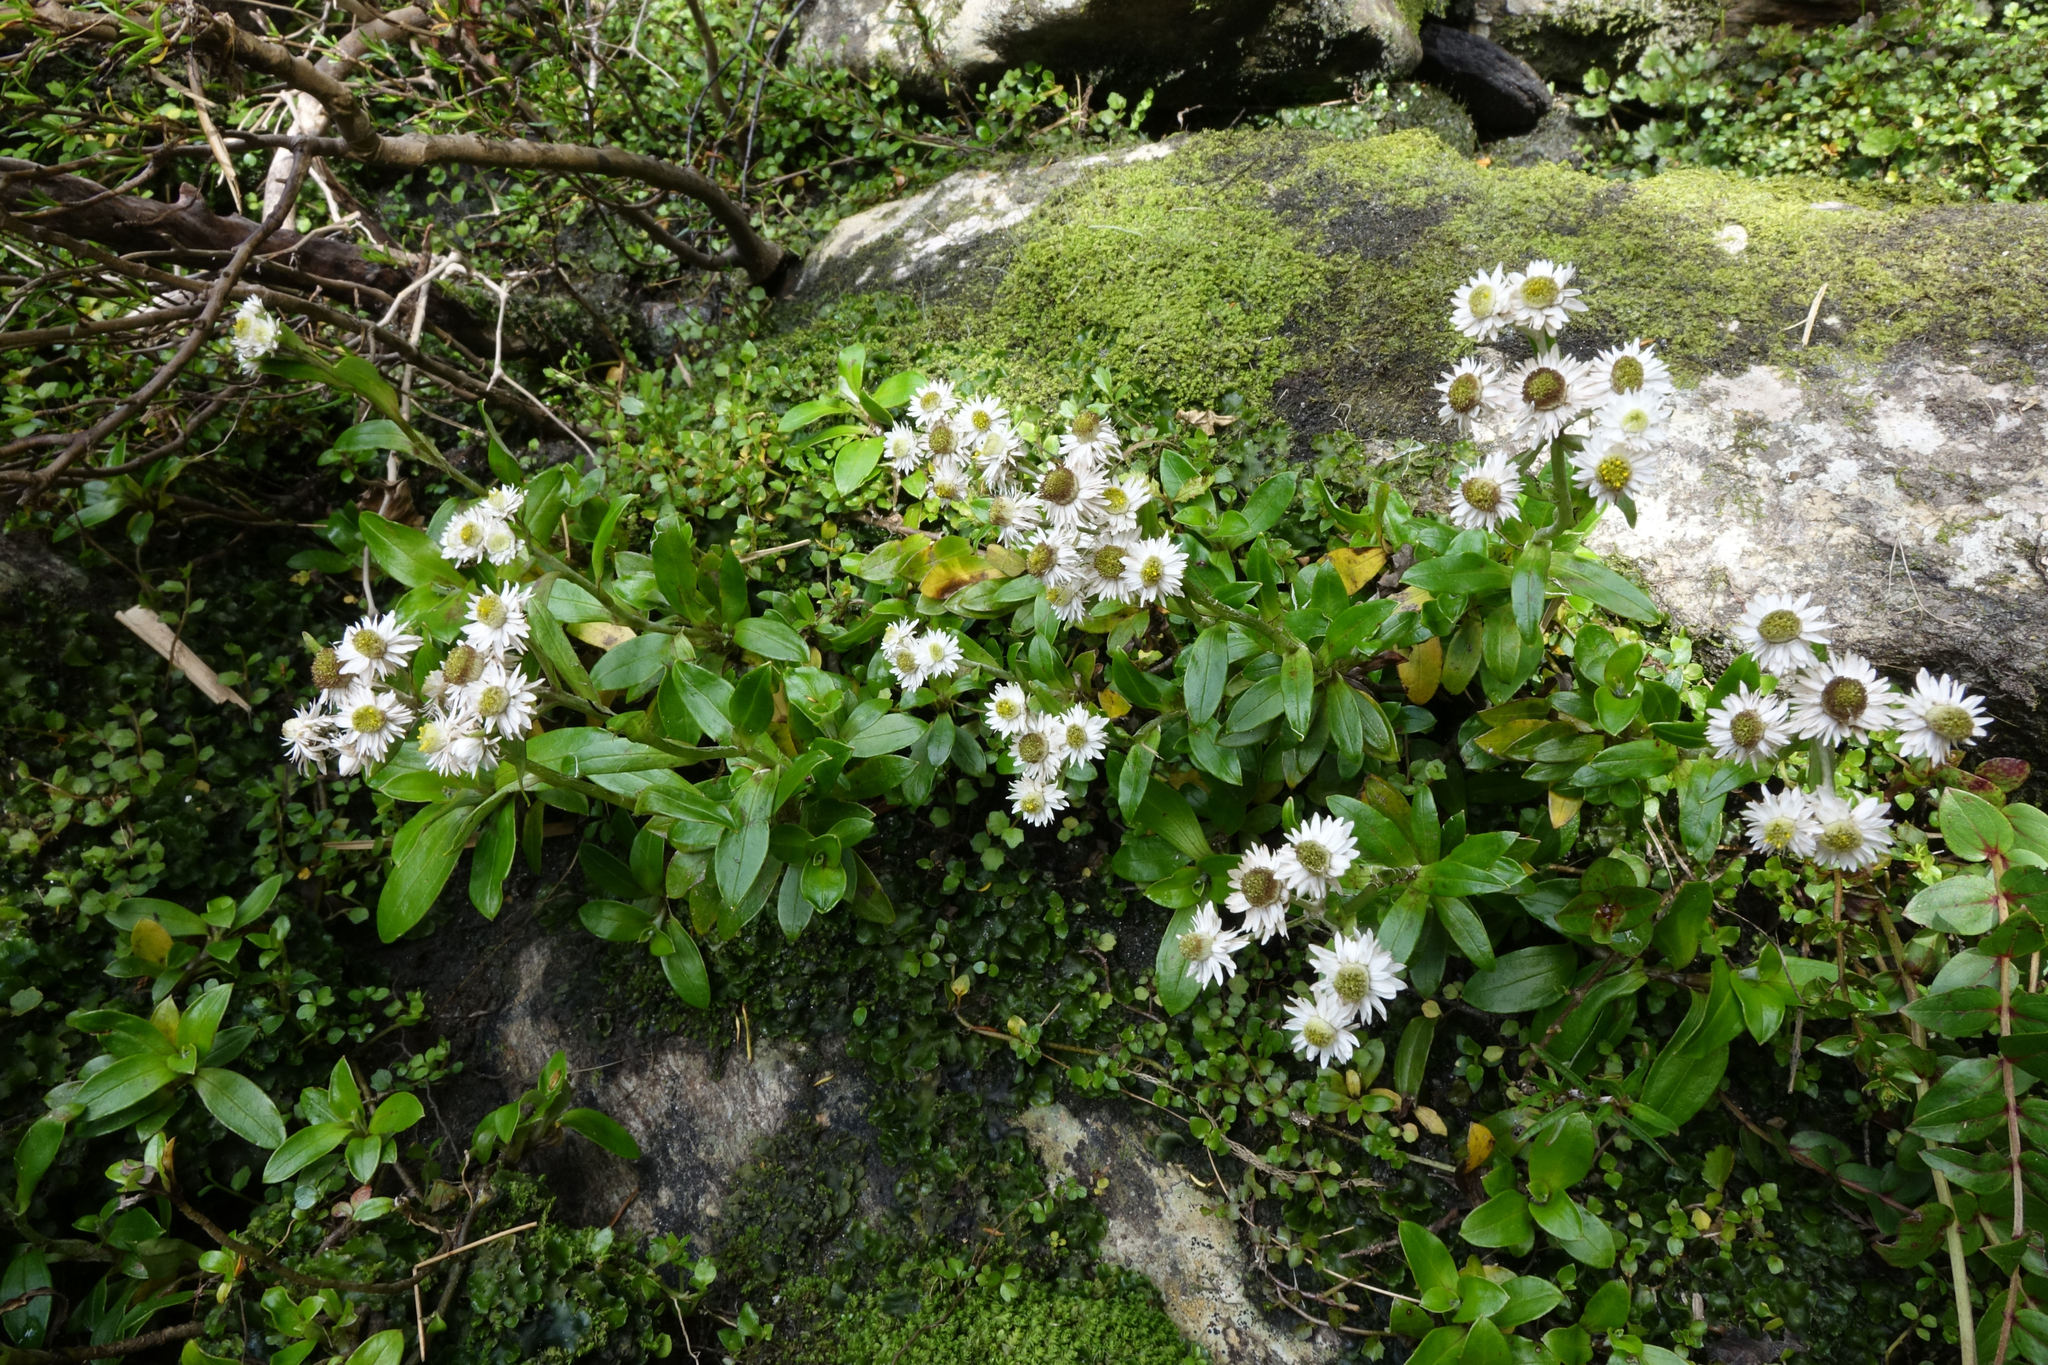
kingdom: Plantae
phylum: Tracheophyta
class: Magnoliopsida
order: Asterales
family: Asteraceae
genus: Anaphalioides
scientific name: Anaphalioides trinervis
